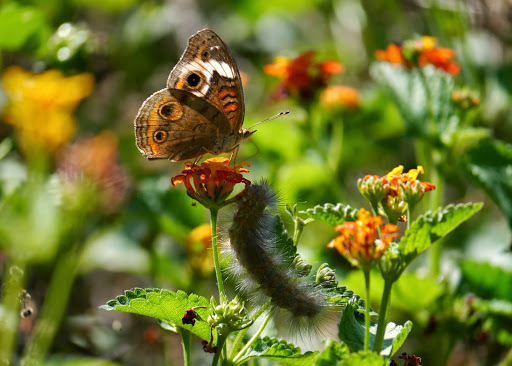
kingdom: Animalia
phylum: Arthropoda
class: Insecta
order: Lepidoptera
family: Nymphalidae
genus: Junonia
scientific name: Junonia coenia
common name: Common buckeye
